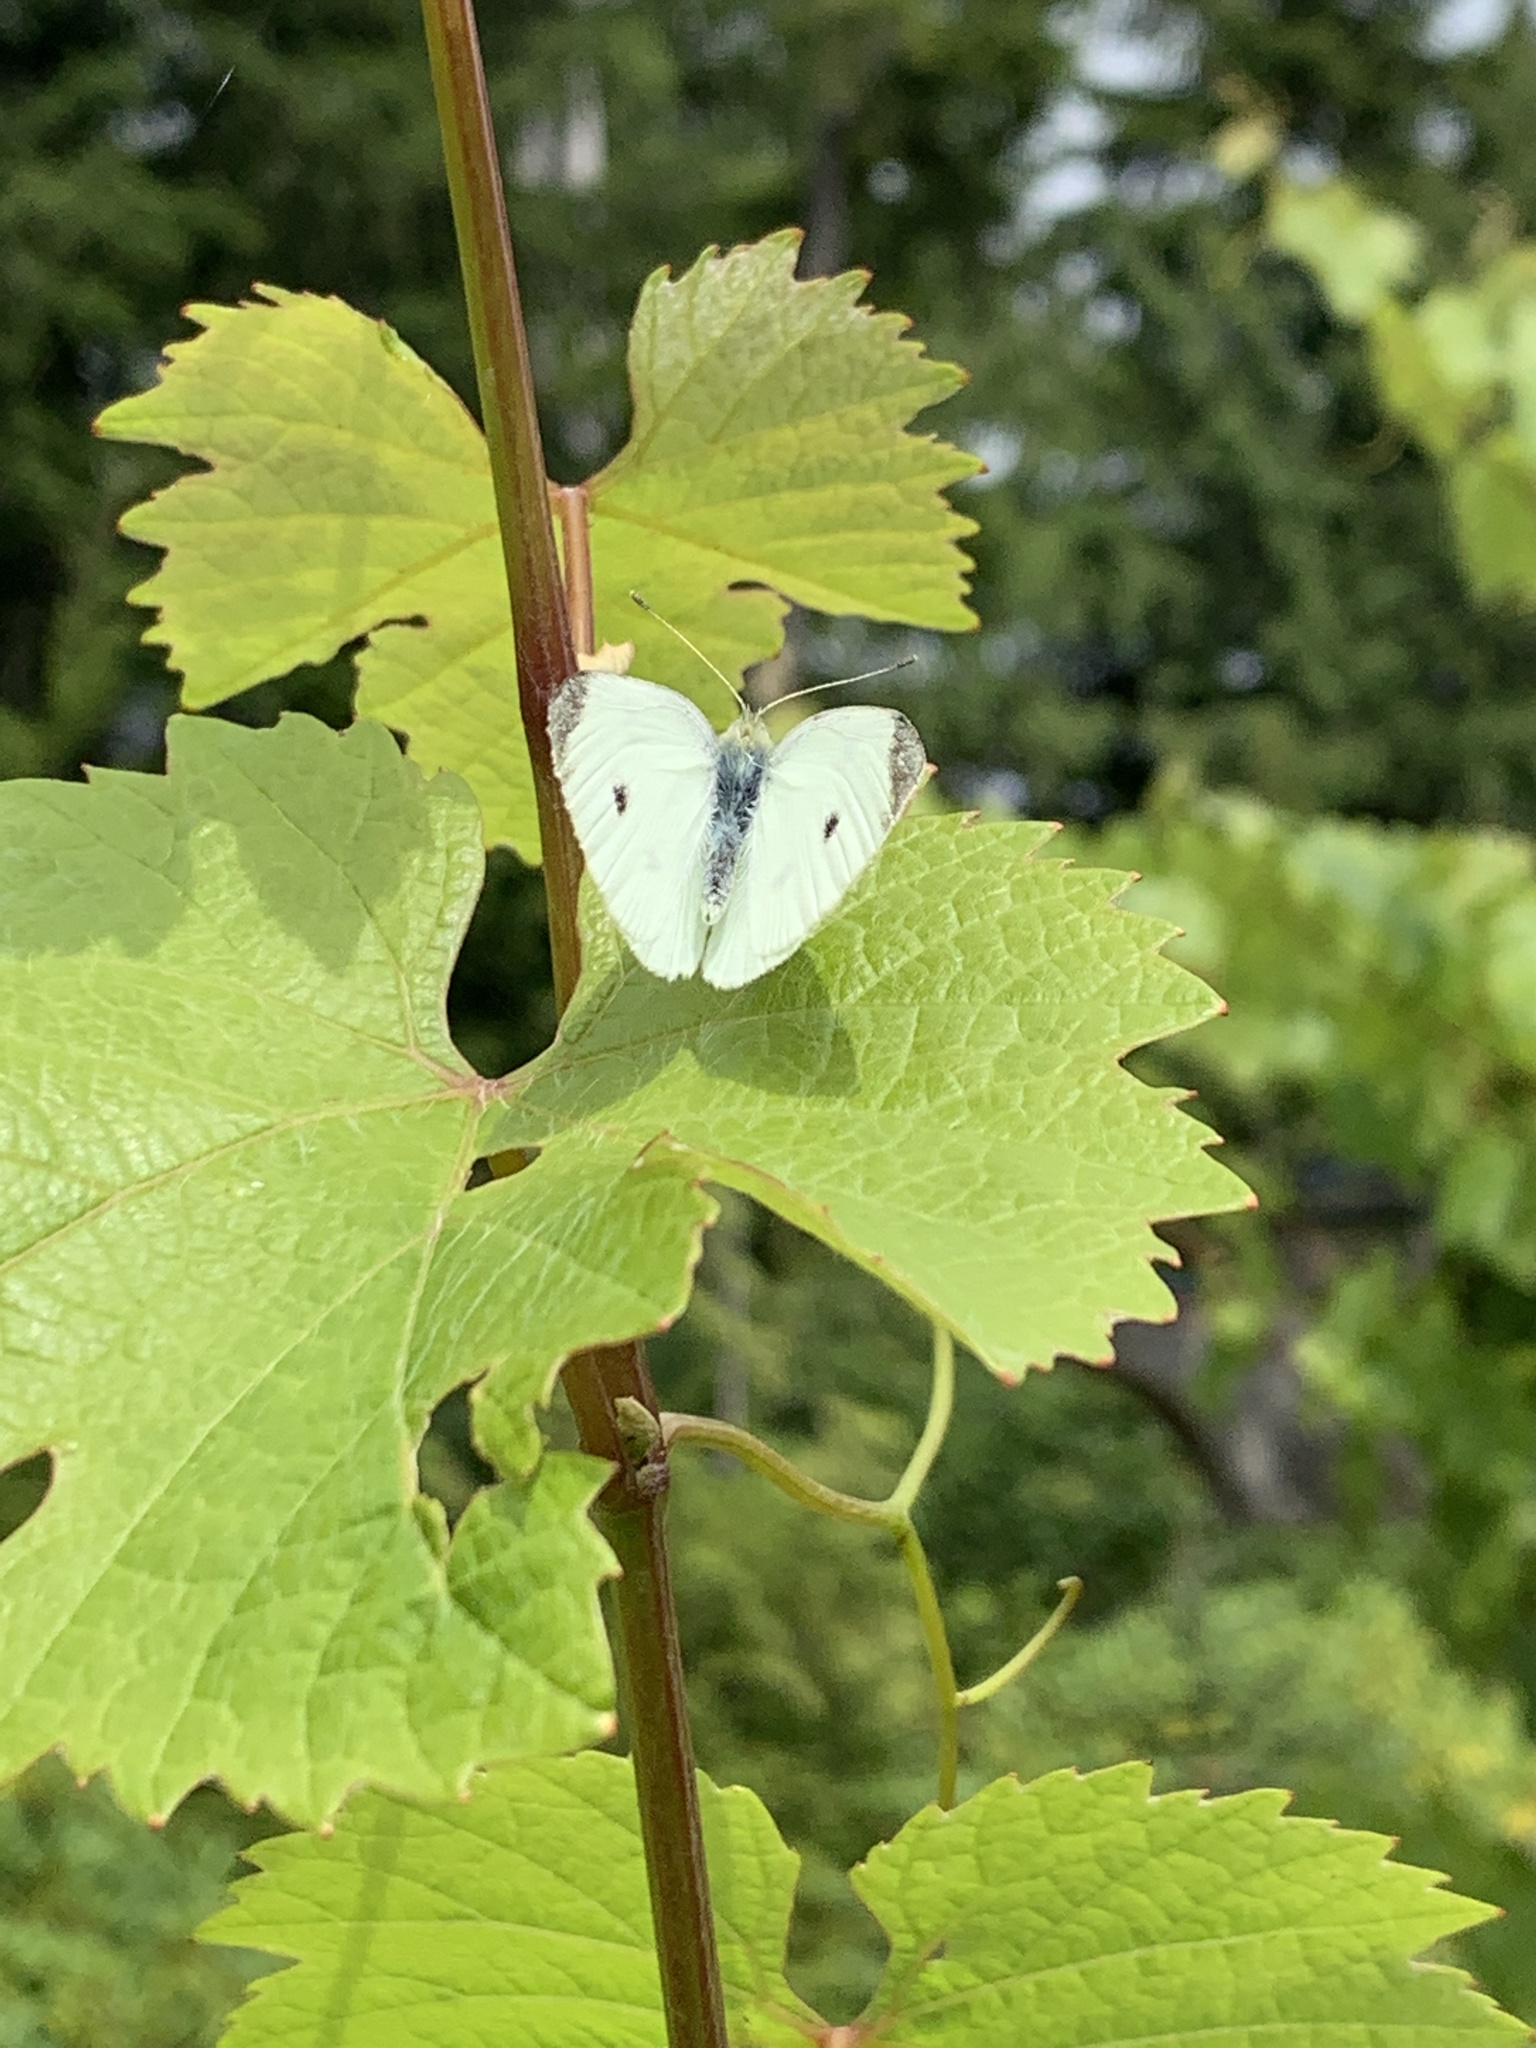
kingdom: Animalia
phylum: Arthropoda
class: Insecta
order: Lepidoptera
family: Pieridae
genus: Pieris
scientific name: Pieris rapae
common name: Small white
